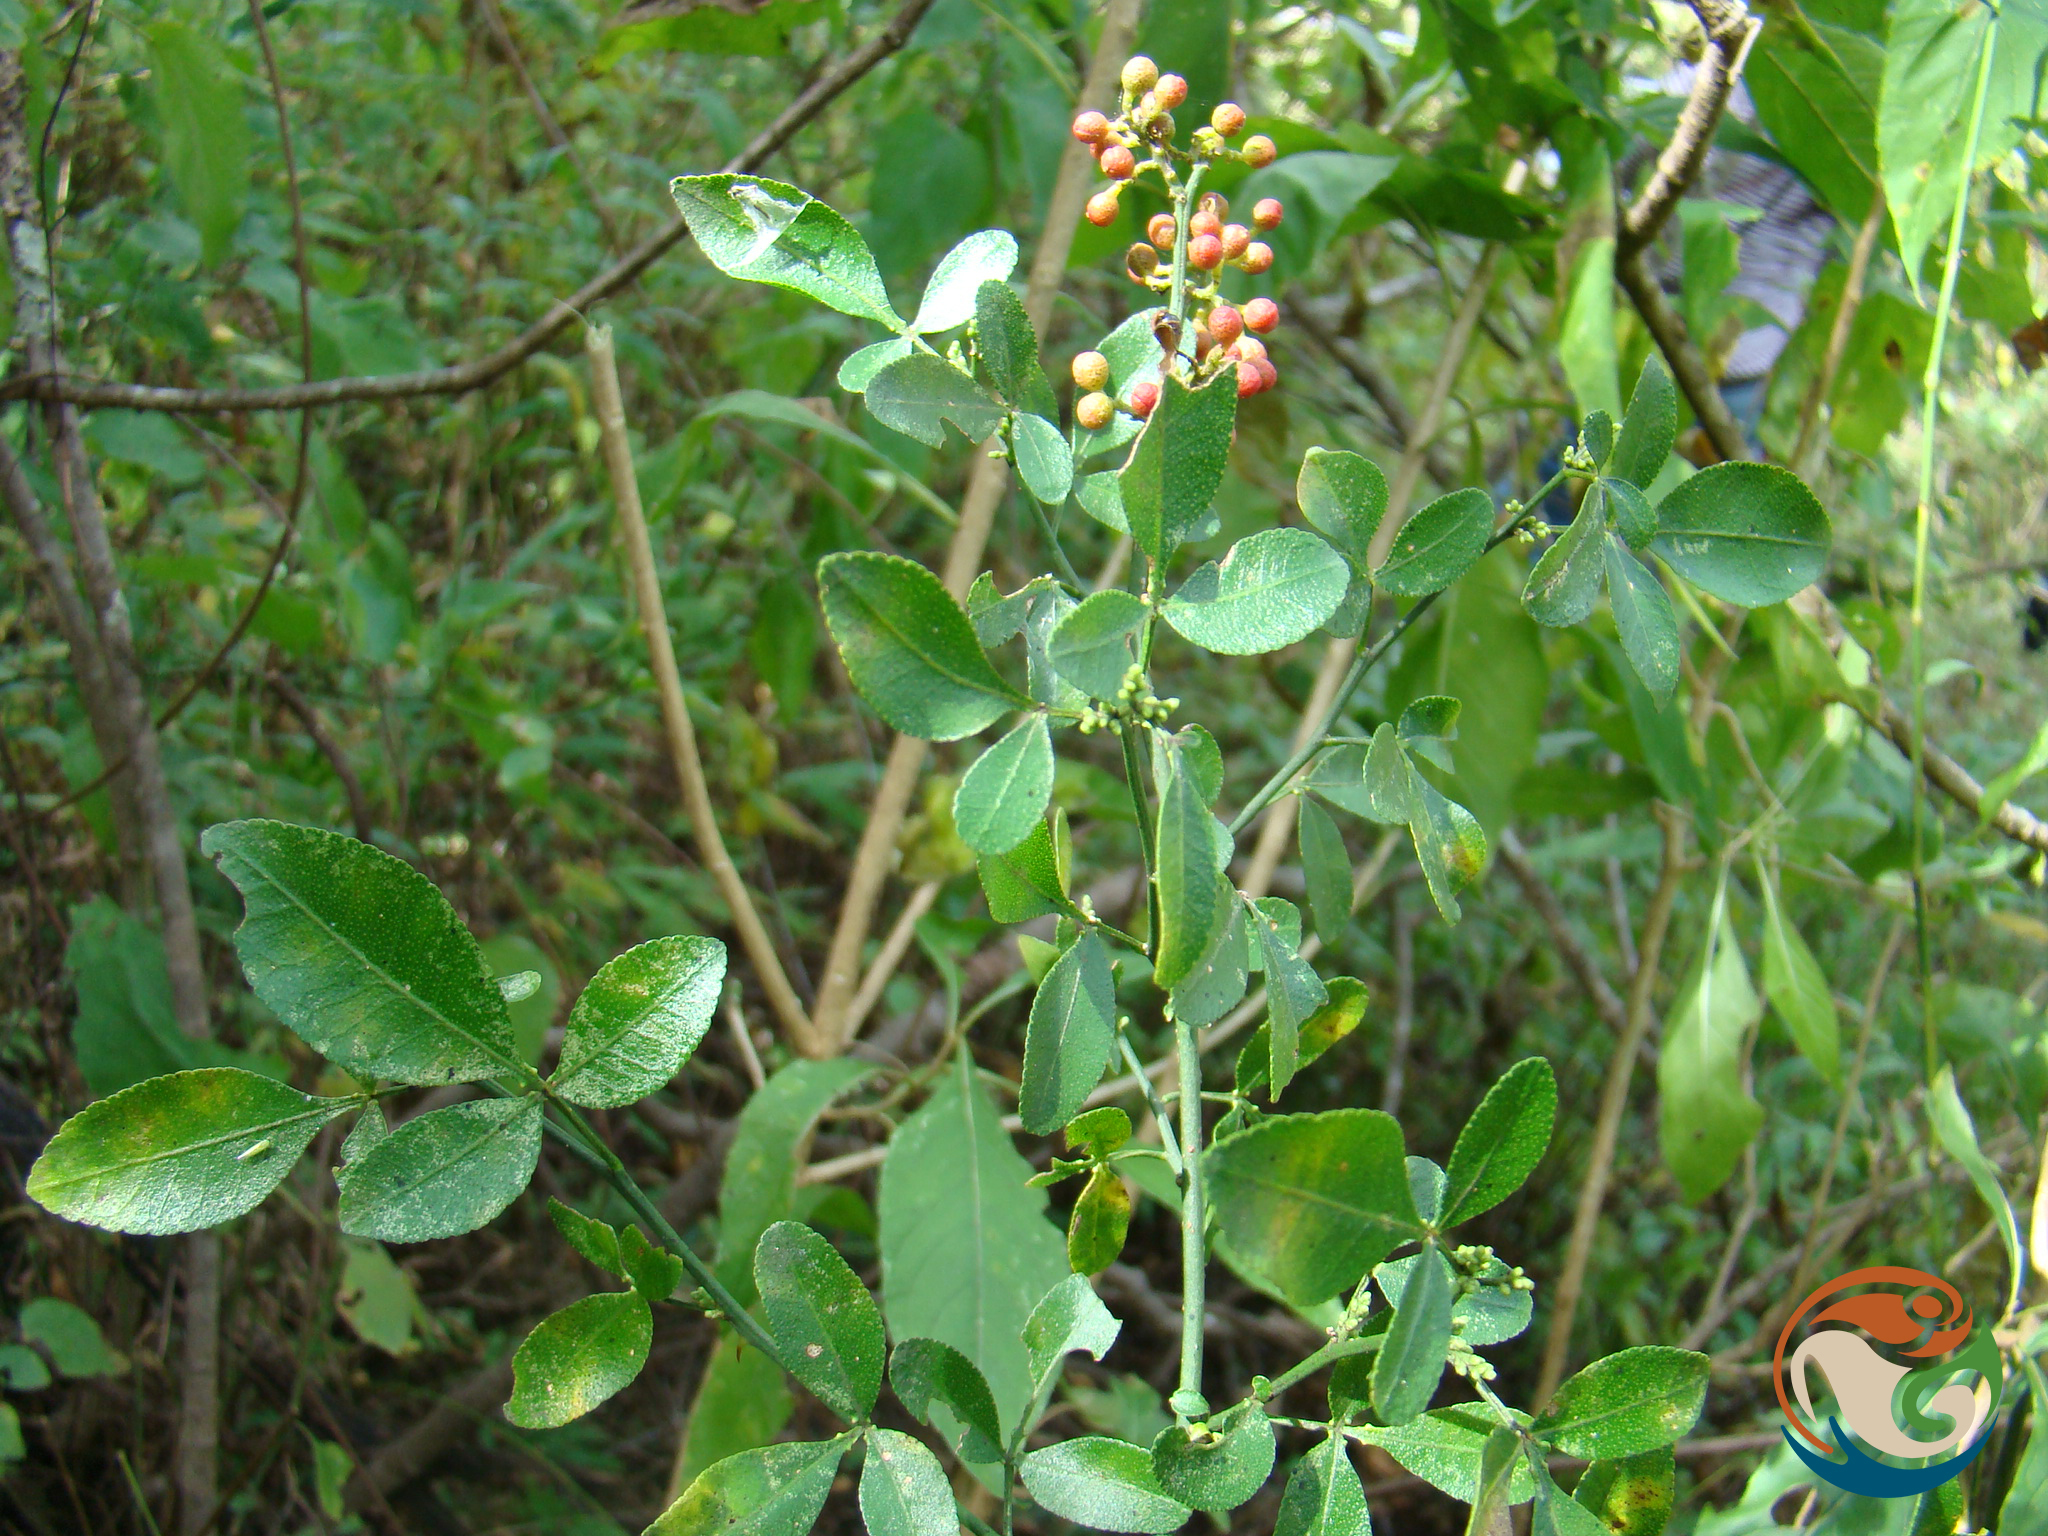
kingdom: Plantae
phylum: Tracheophyta
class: Magnoliopsida
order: Sapindales
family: Rutaceae
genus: Zanthoxylum
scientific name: Zanthoxylum limoncello
